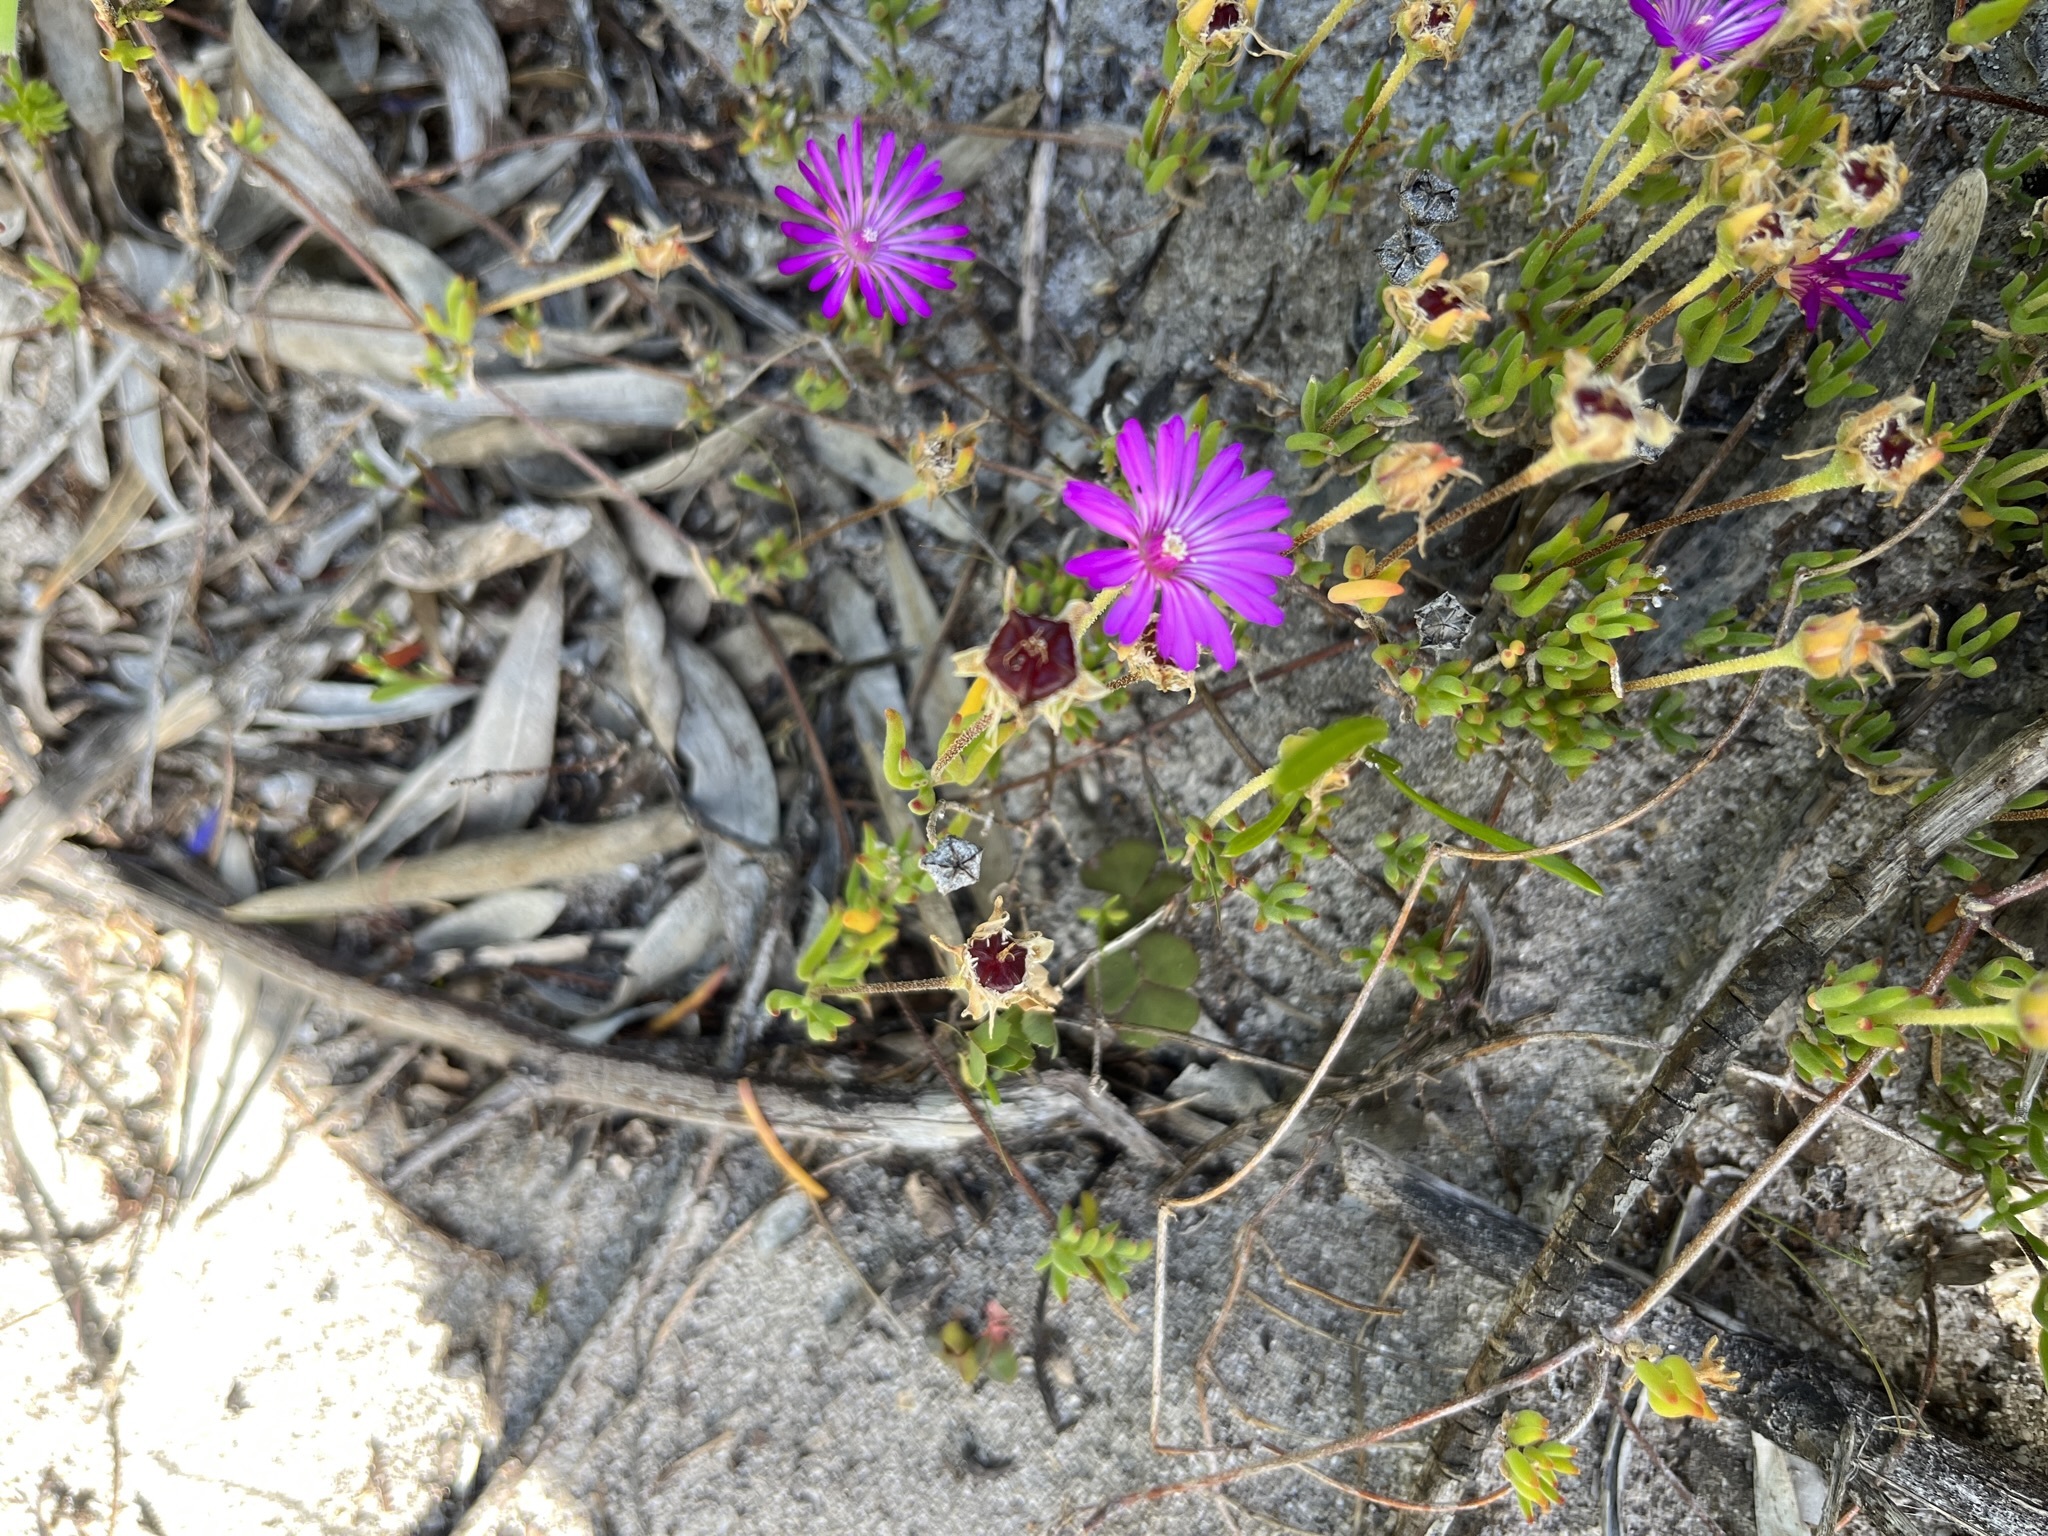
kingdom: Plantae
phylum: Tracheophyta
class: Magnoliopsida
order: Caryophyllales
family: Aizoaceae
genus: Drosanthemum
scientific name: Drosanthemum calcareum
